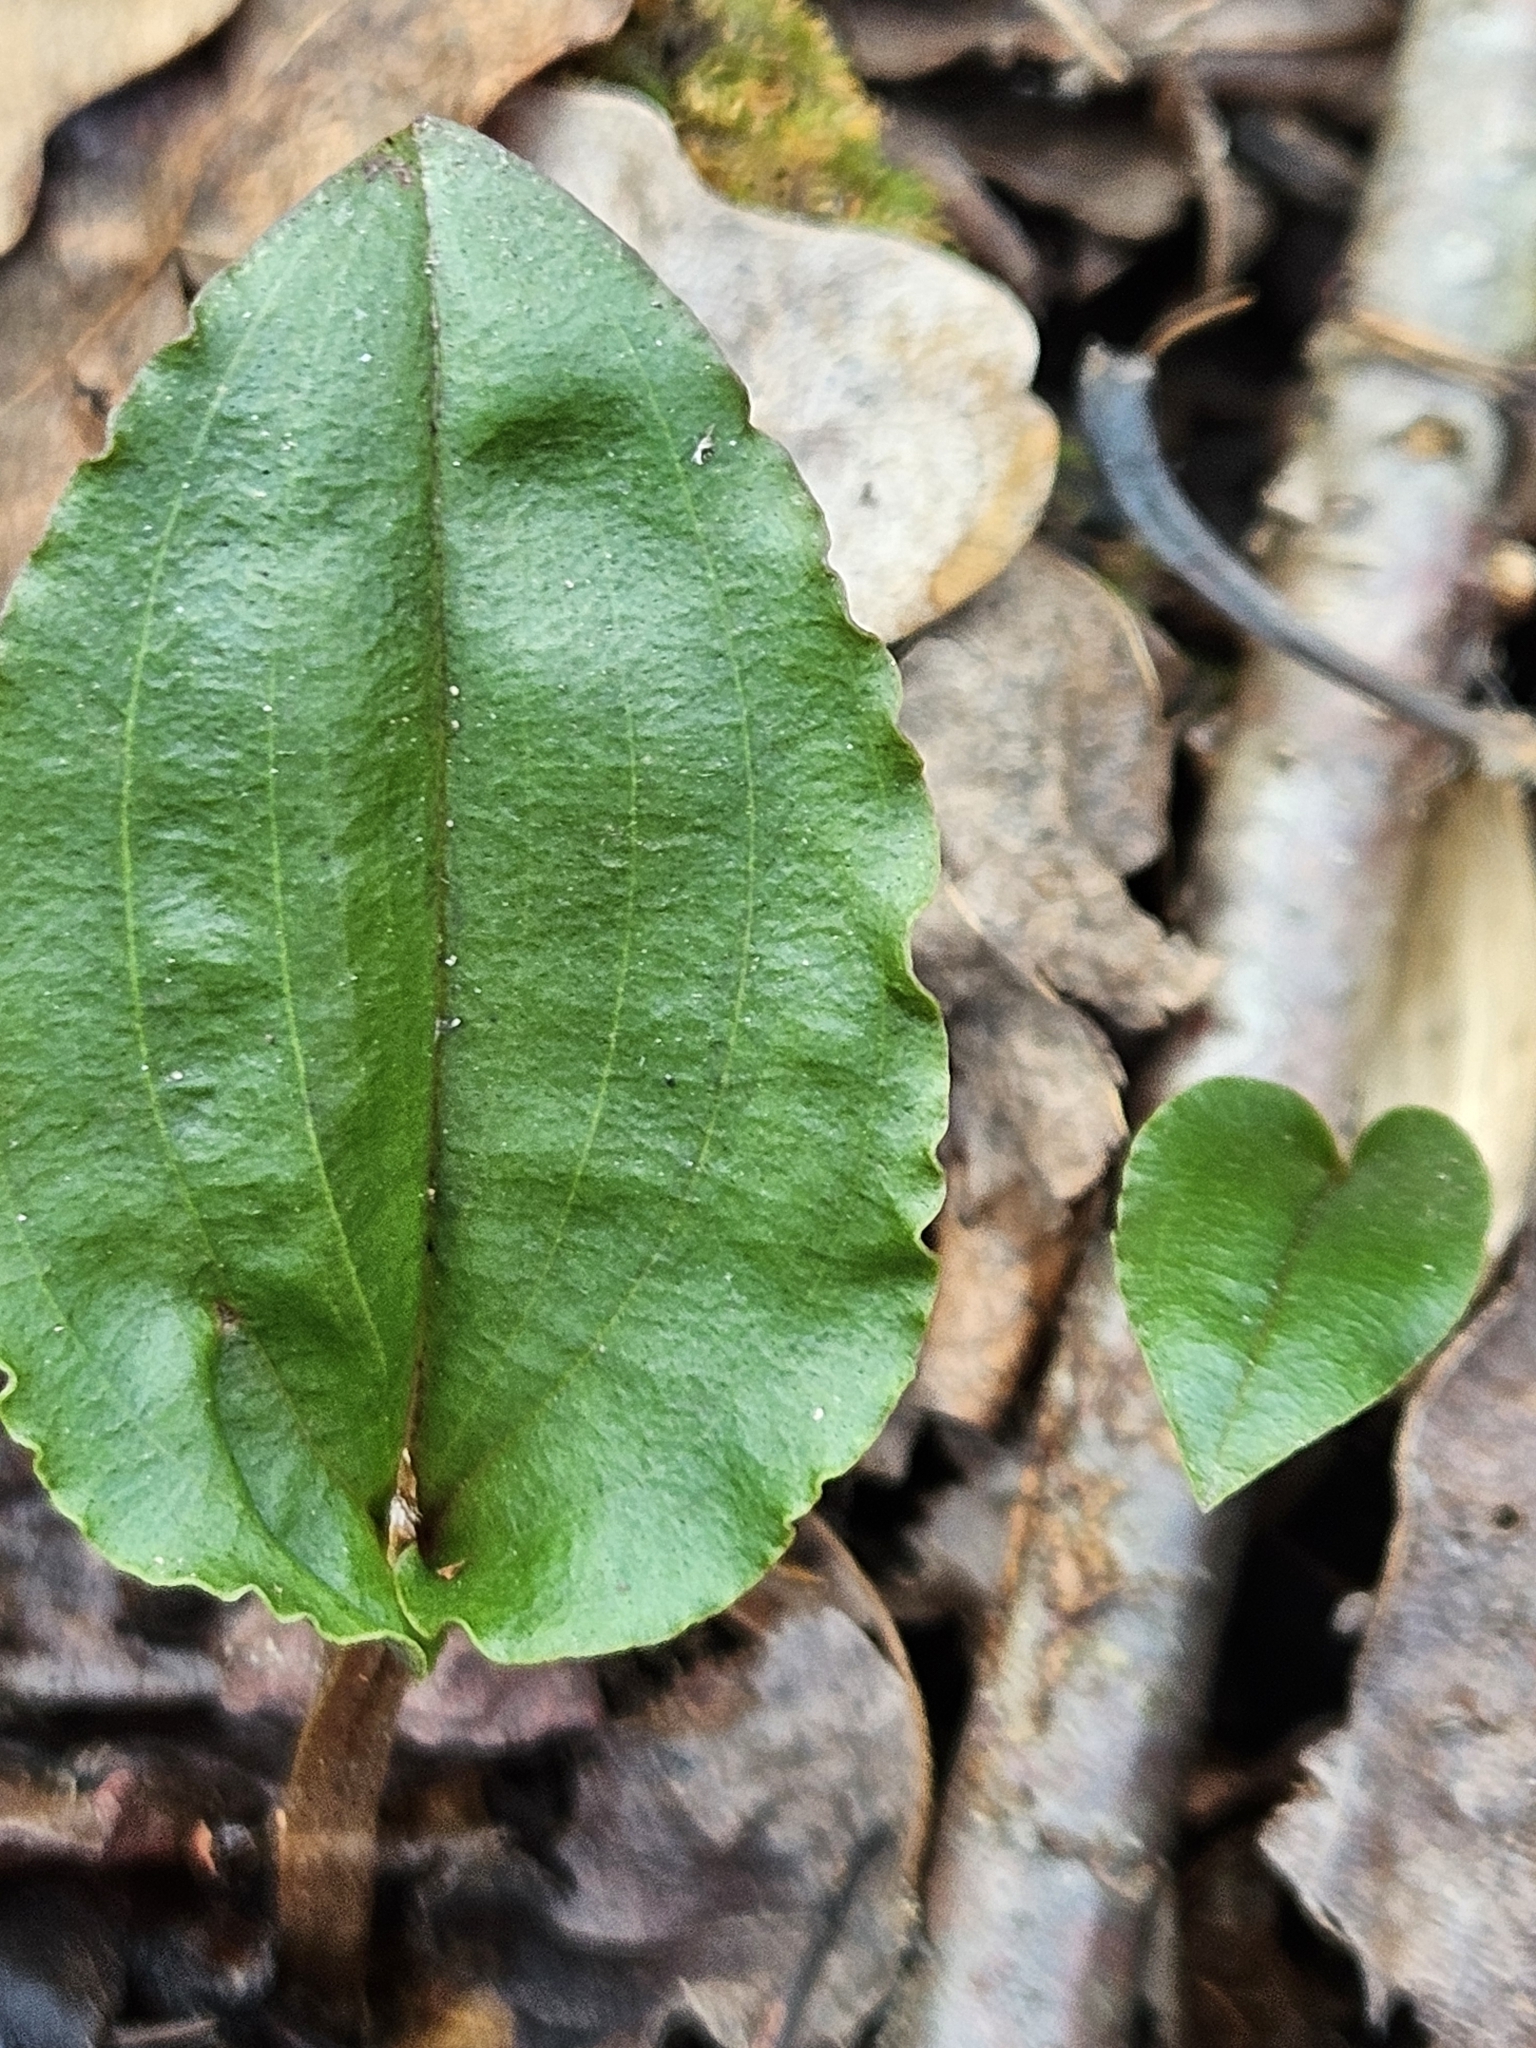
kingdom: Plantae
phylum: Tracheophyta
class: Liliopsida
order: Asparagales
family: Orchidaceae
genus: Tipularia
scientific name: Tipularia discolor
